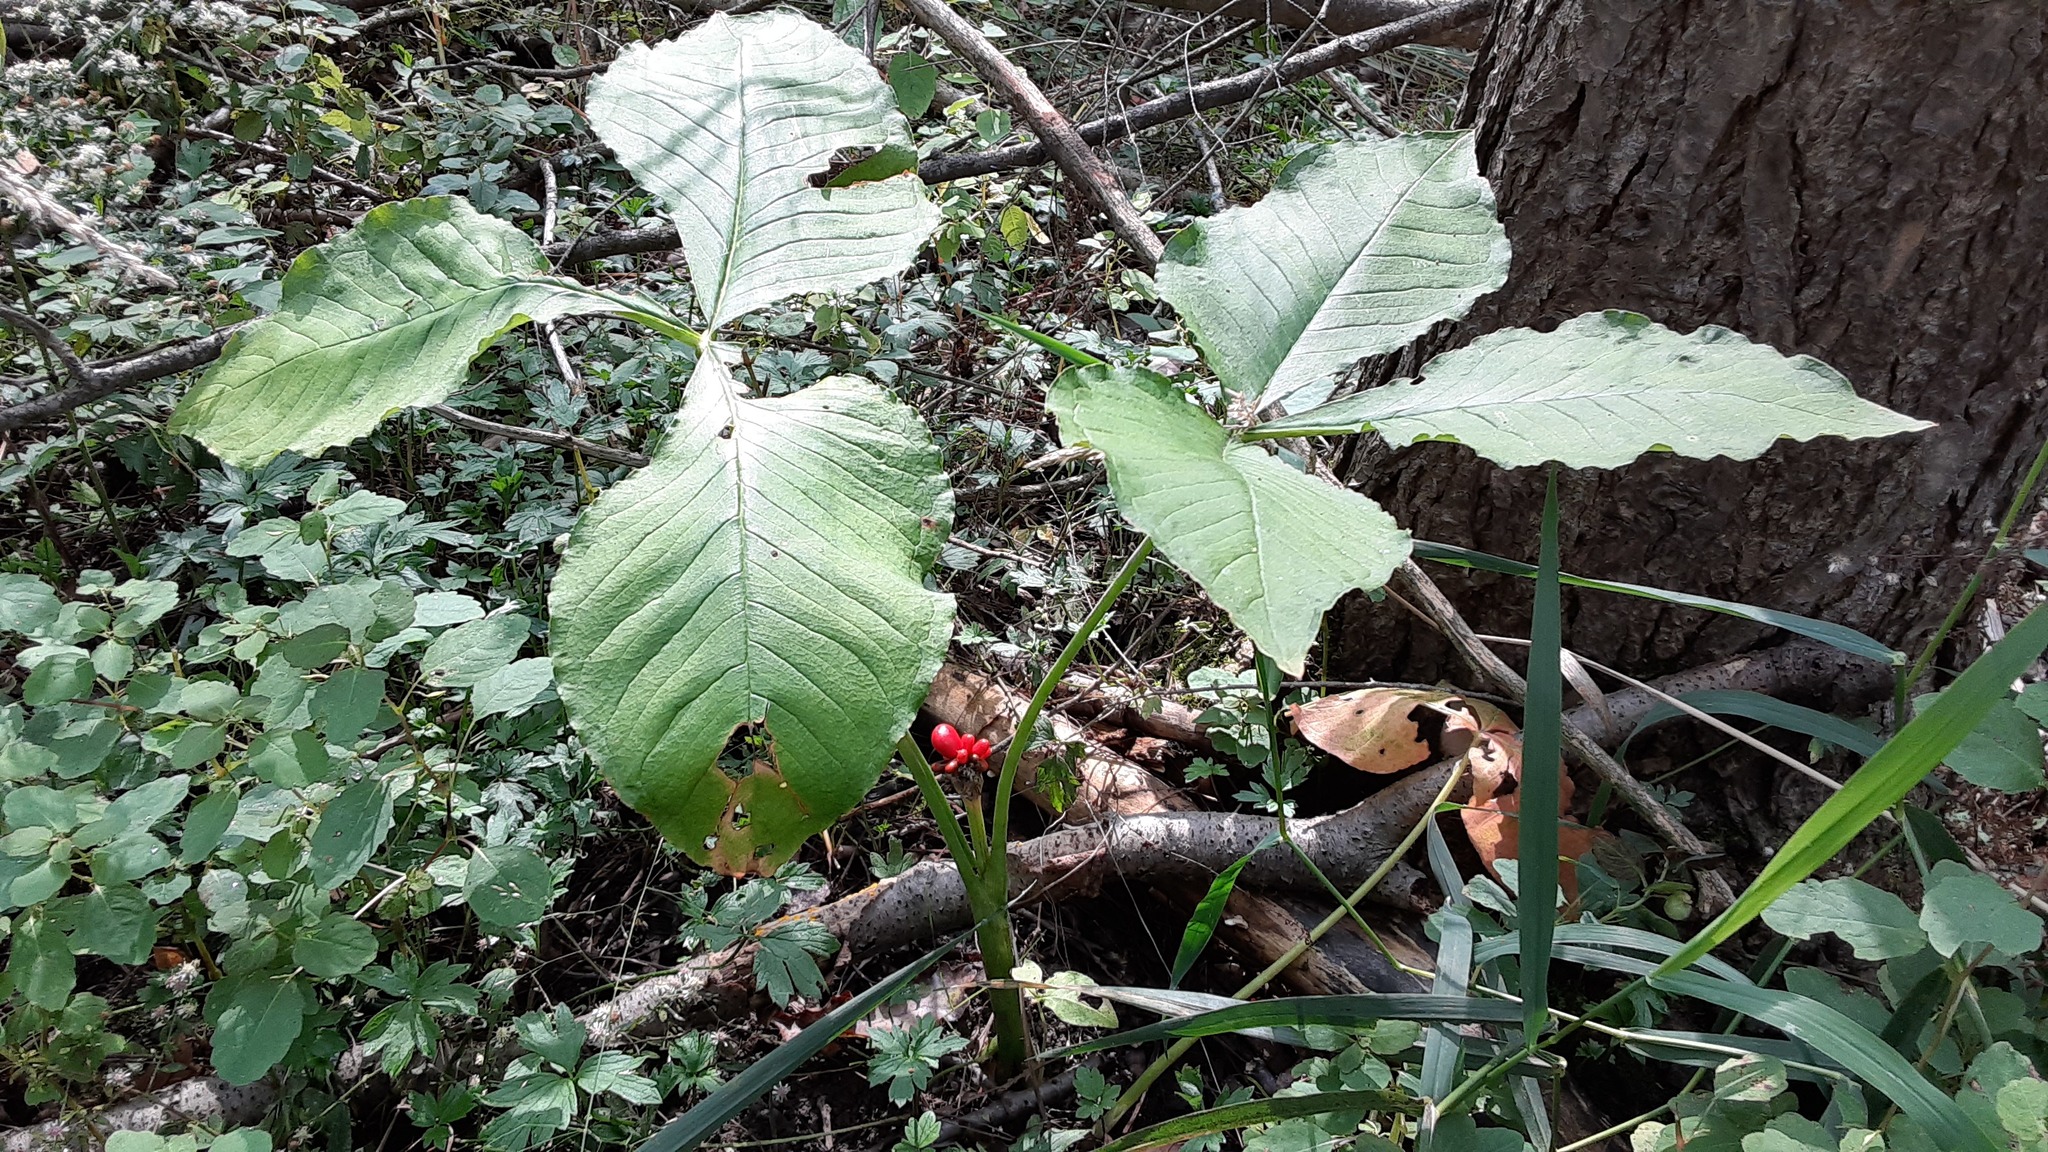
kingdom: Plantae
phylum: Tracheophyta
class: Liliopsida
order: Alismatales
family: Araceae
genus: Arisaema
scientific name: Arisaema triphyllum
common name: Jack-in-the-pulpit
